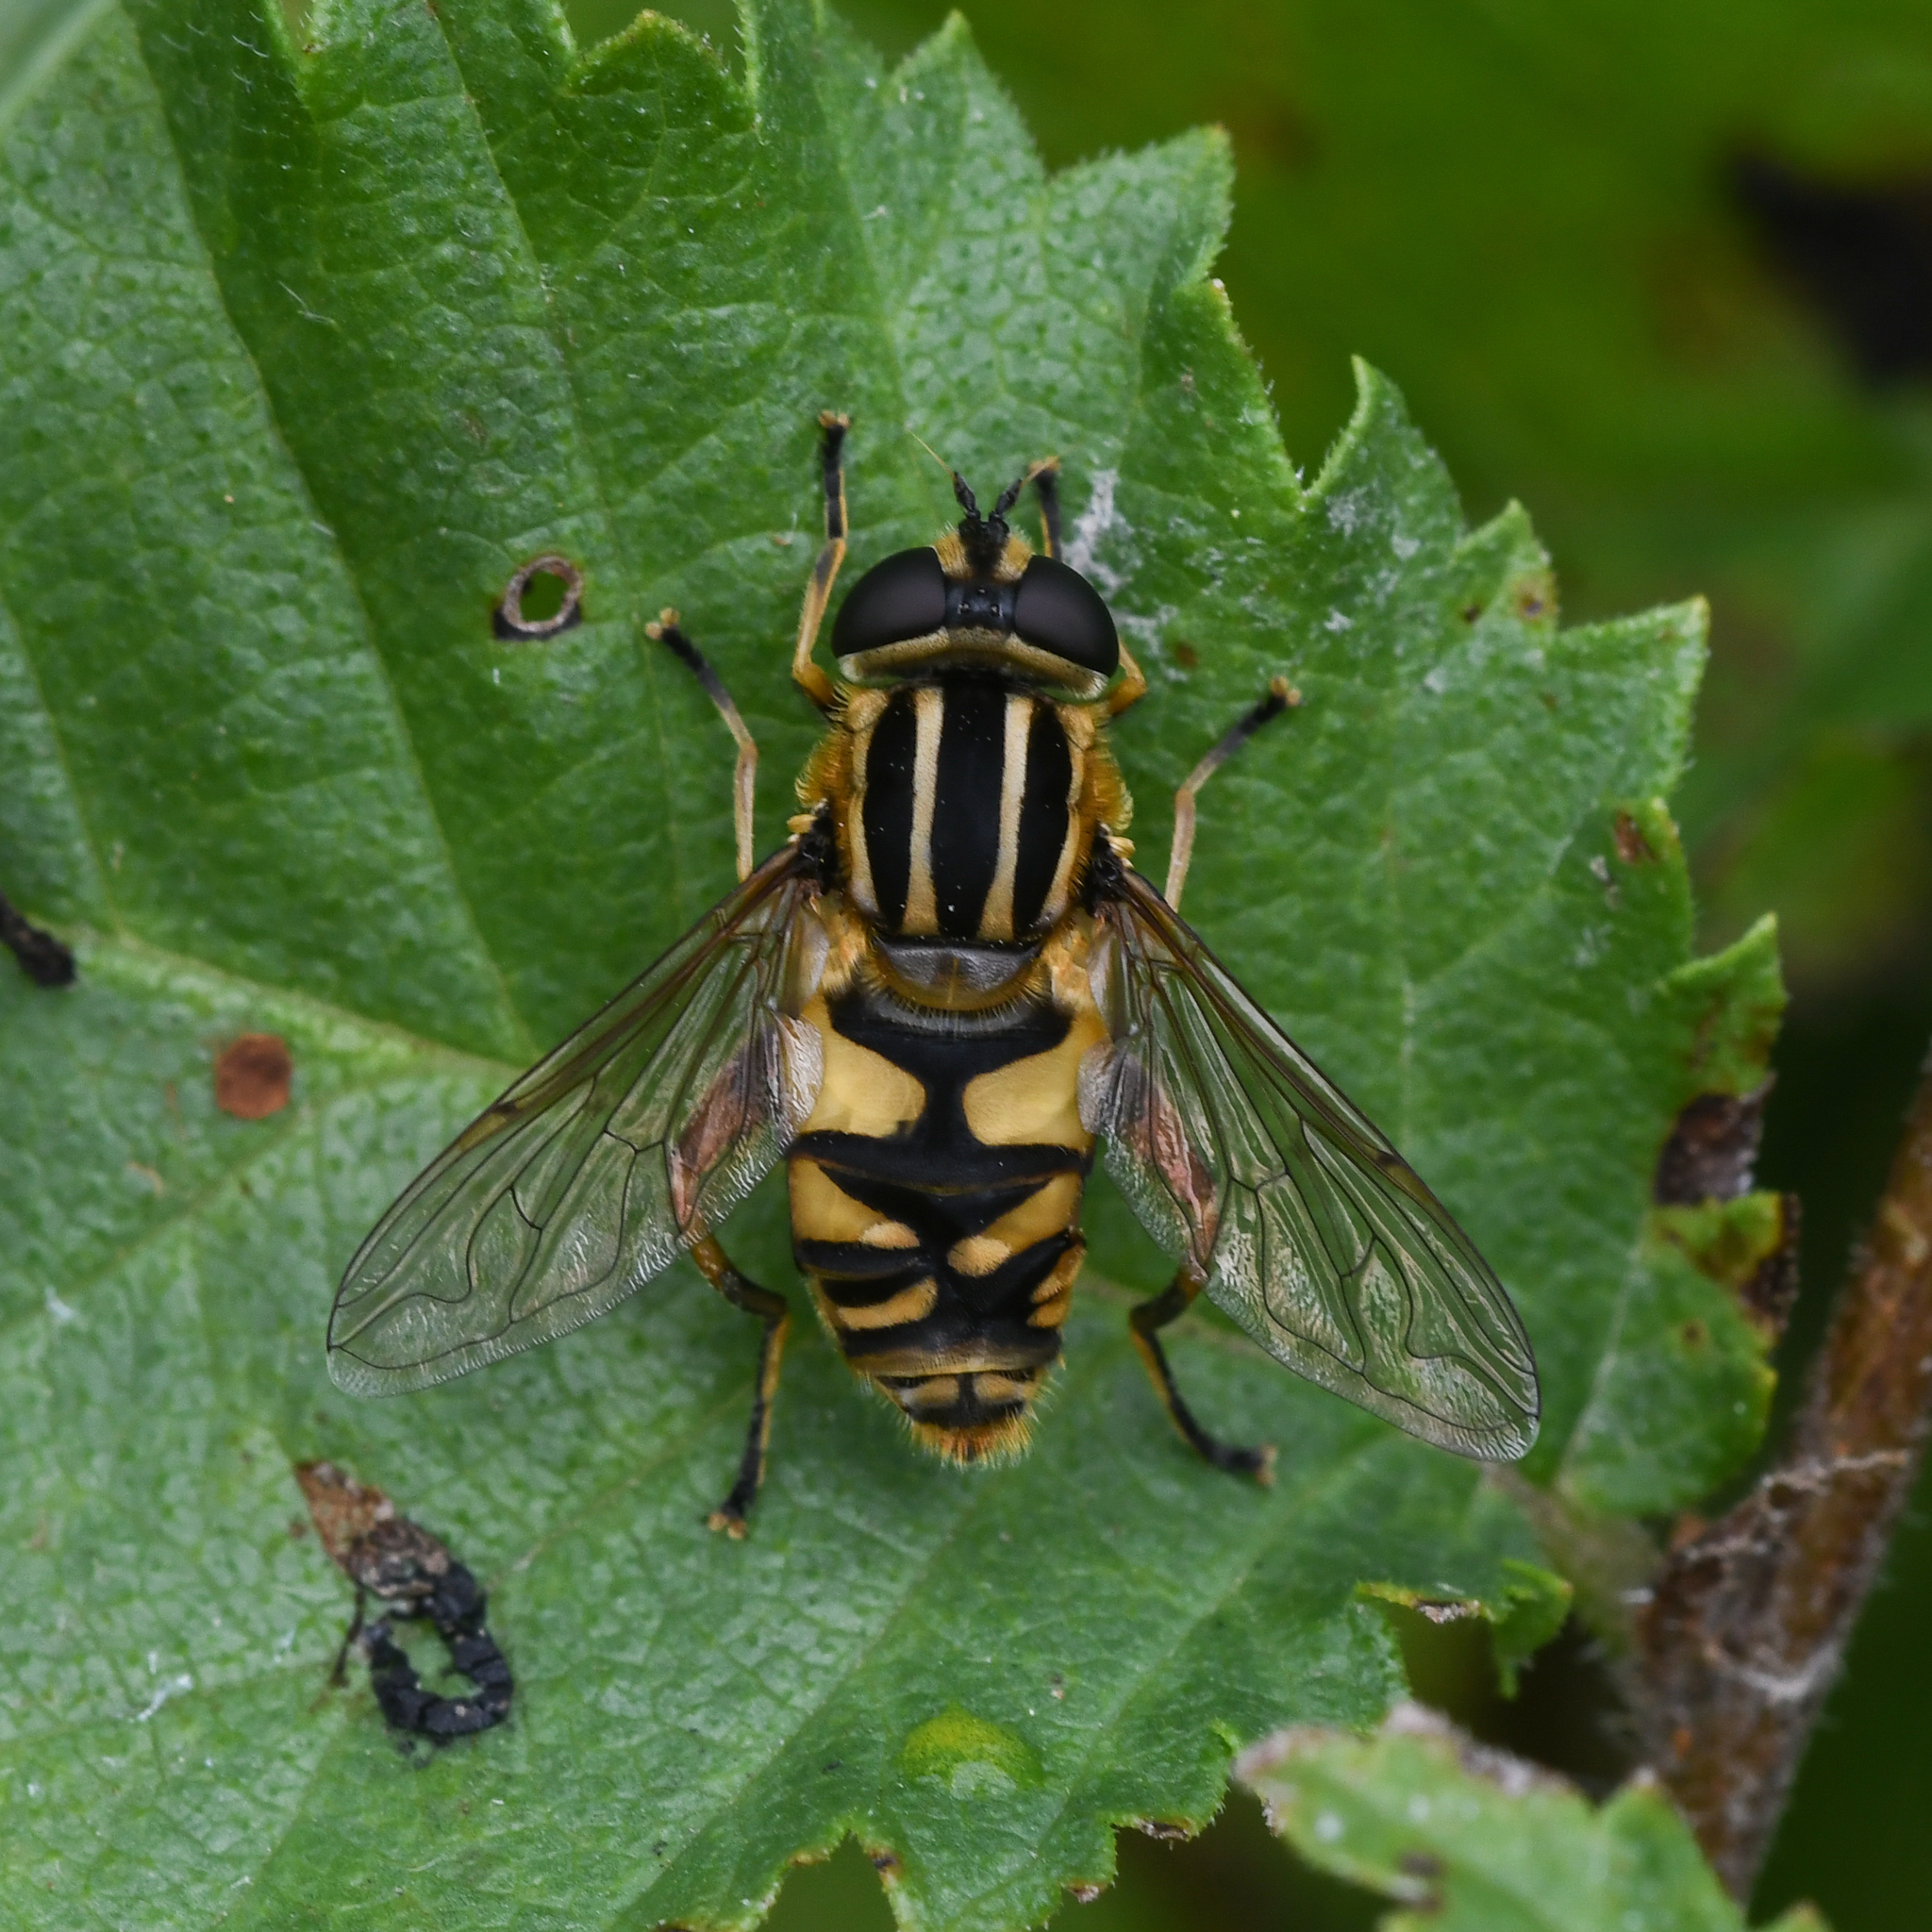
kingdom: Animalia
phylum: Arthropoda
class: Insecta
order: Diptera
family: Syrphidae
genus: Helophilus
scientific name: Helophilus pendulus
